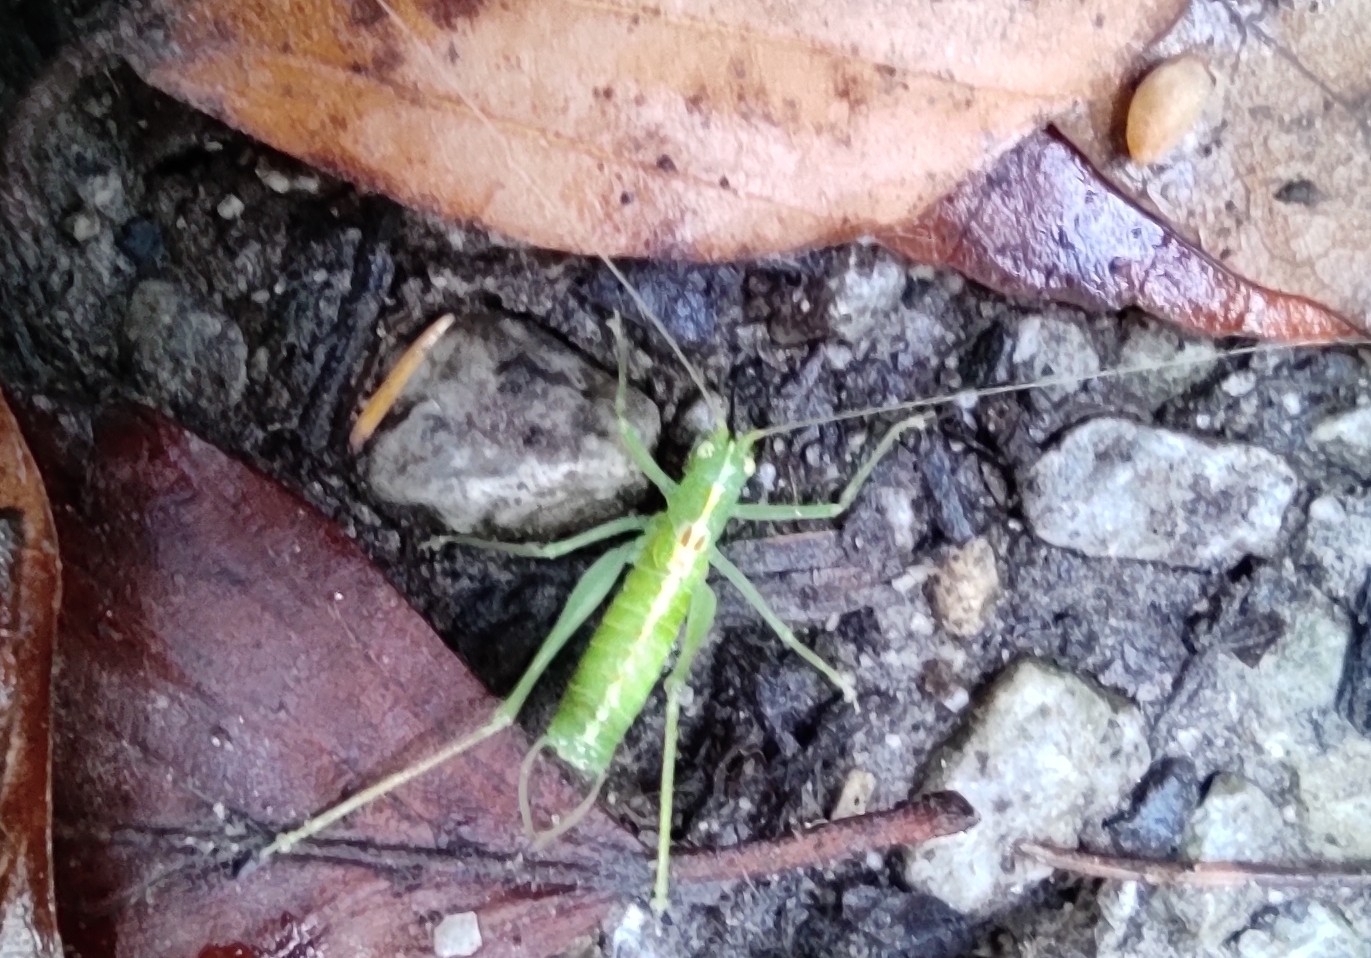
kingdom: Animalia
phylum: Arthropoda
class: Insecta
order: Orthoptera
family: Tettigoniidae
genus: Meconema
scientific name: Meconema meridionale
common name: Southern oak bush-cricket
